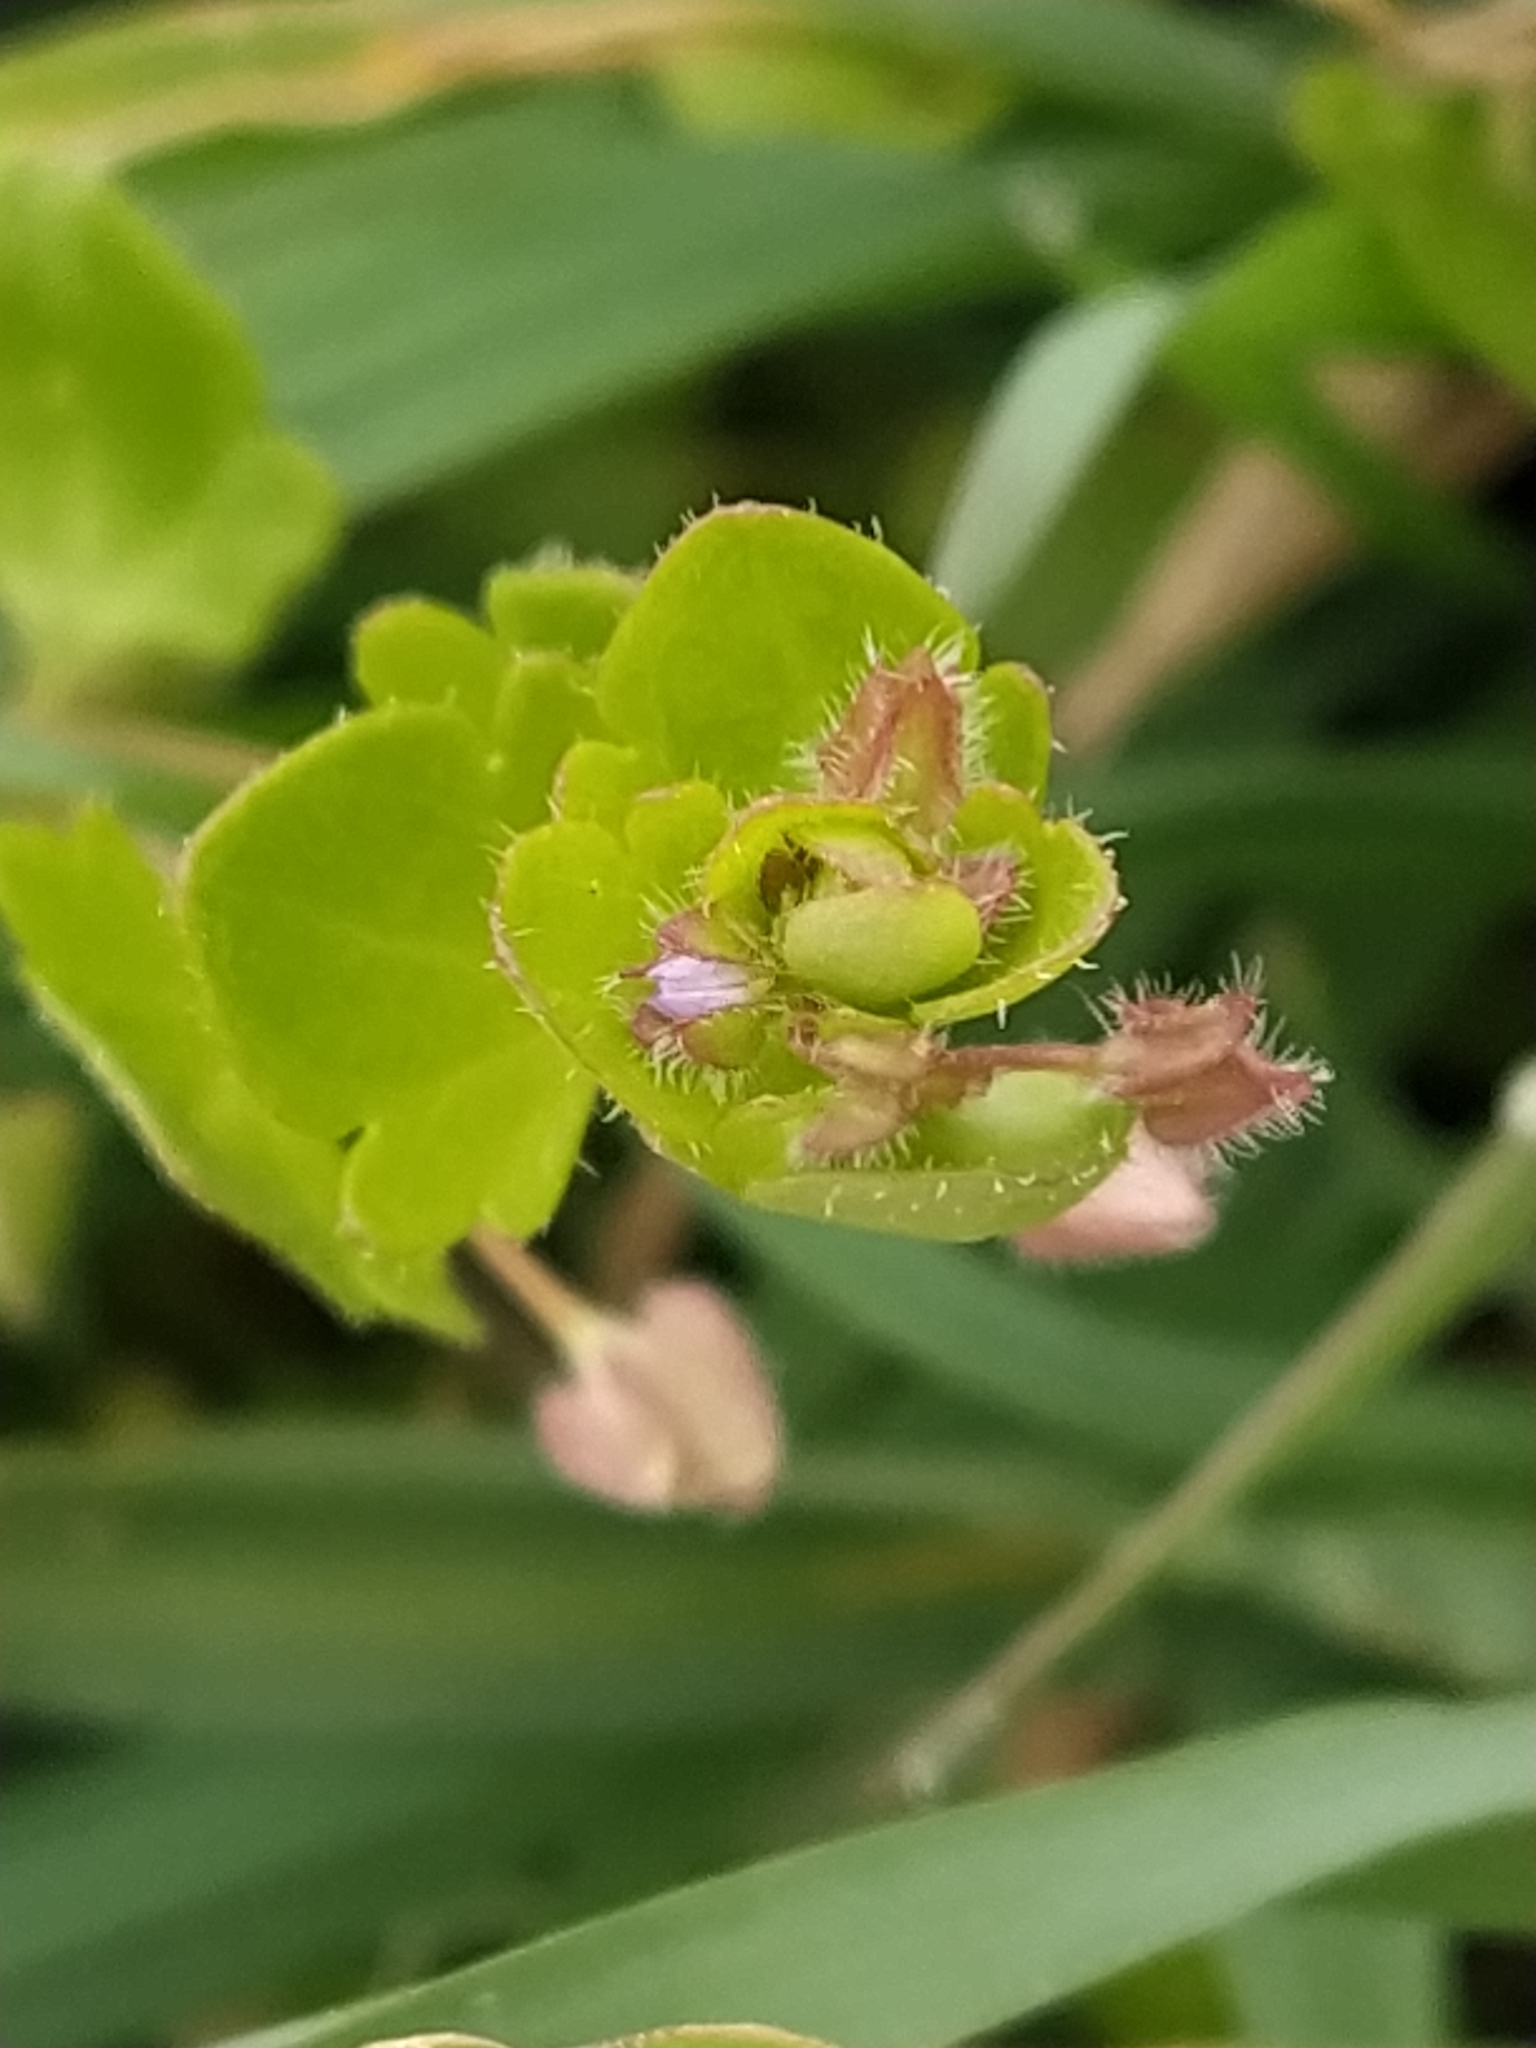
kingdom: Plantae
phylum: Tracheophyta
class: Magnoliopsida
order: Lamiales
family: Plantaginaceae
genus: Veronica
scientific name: Veronica hederifolia
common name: Ivy-leaved speedwell
